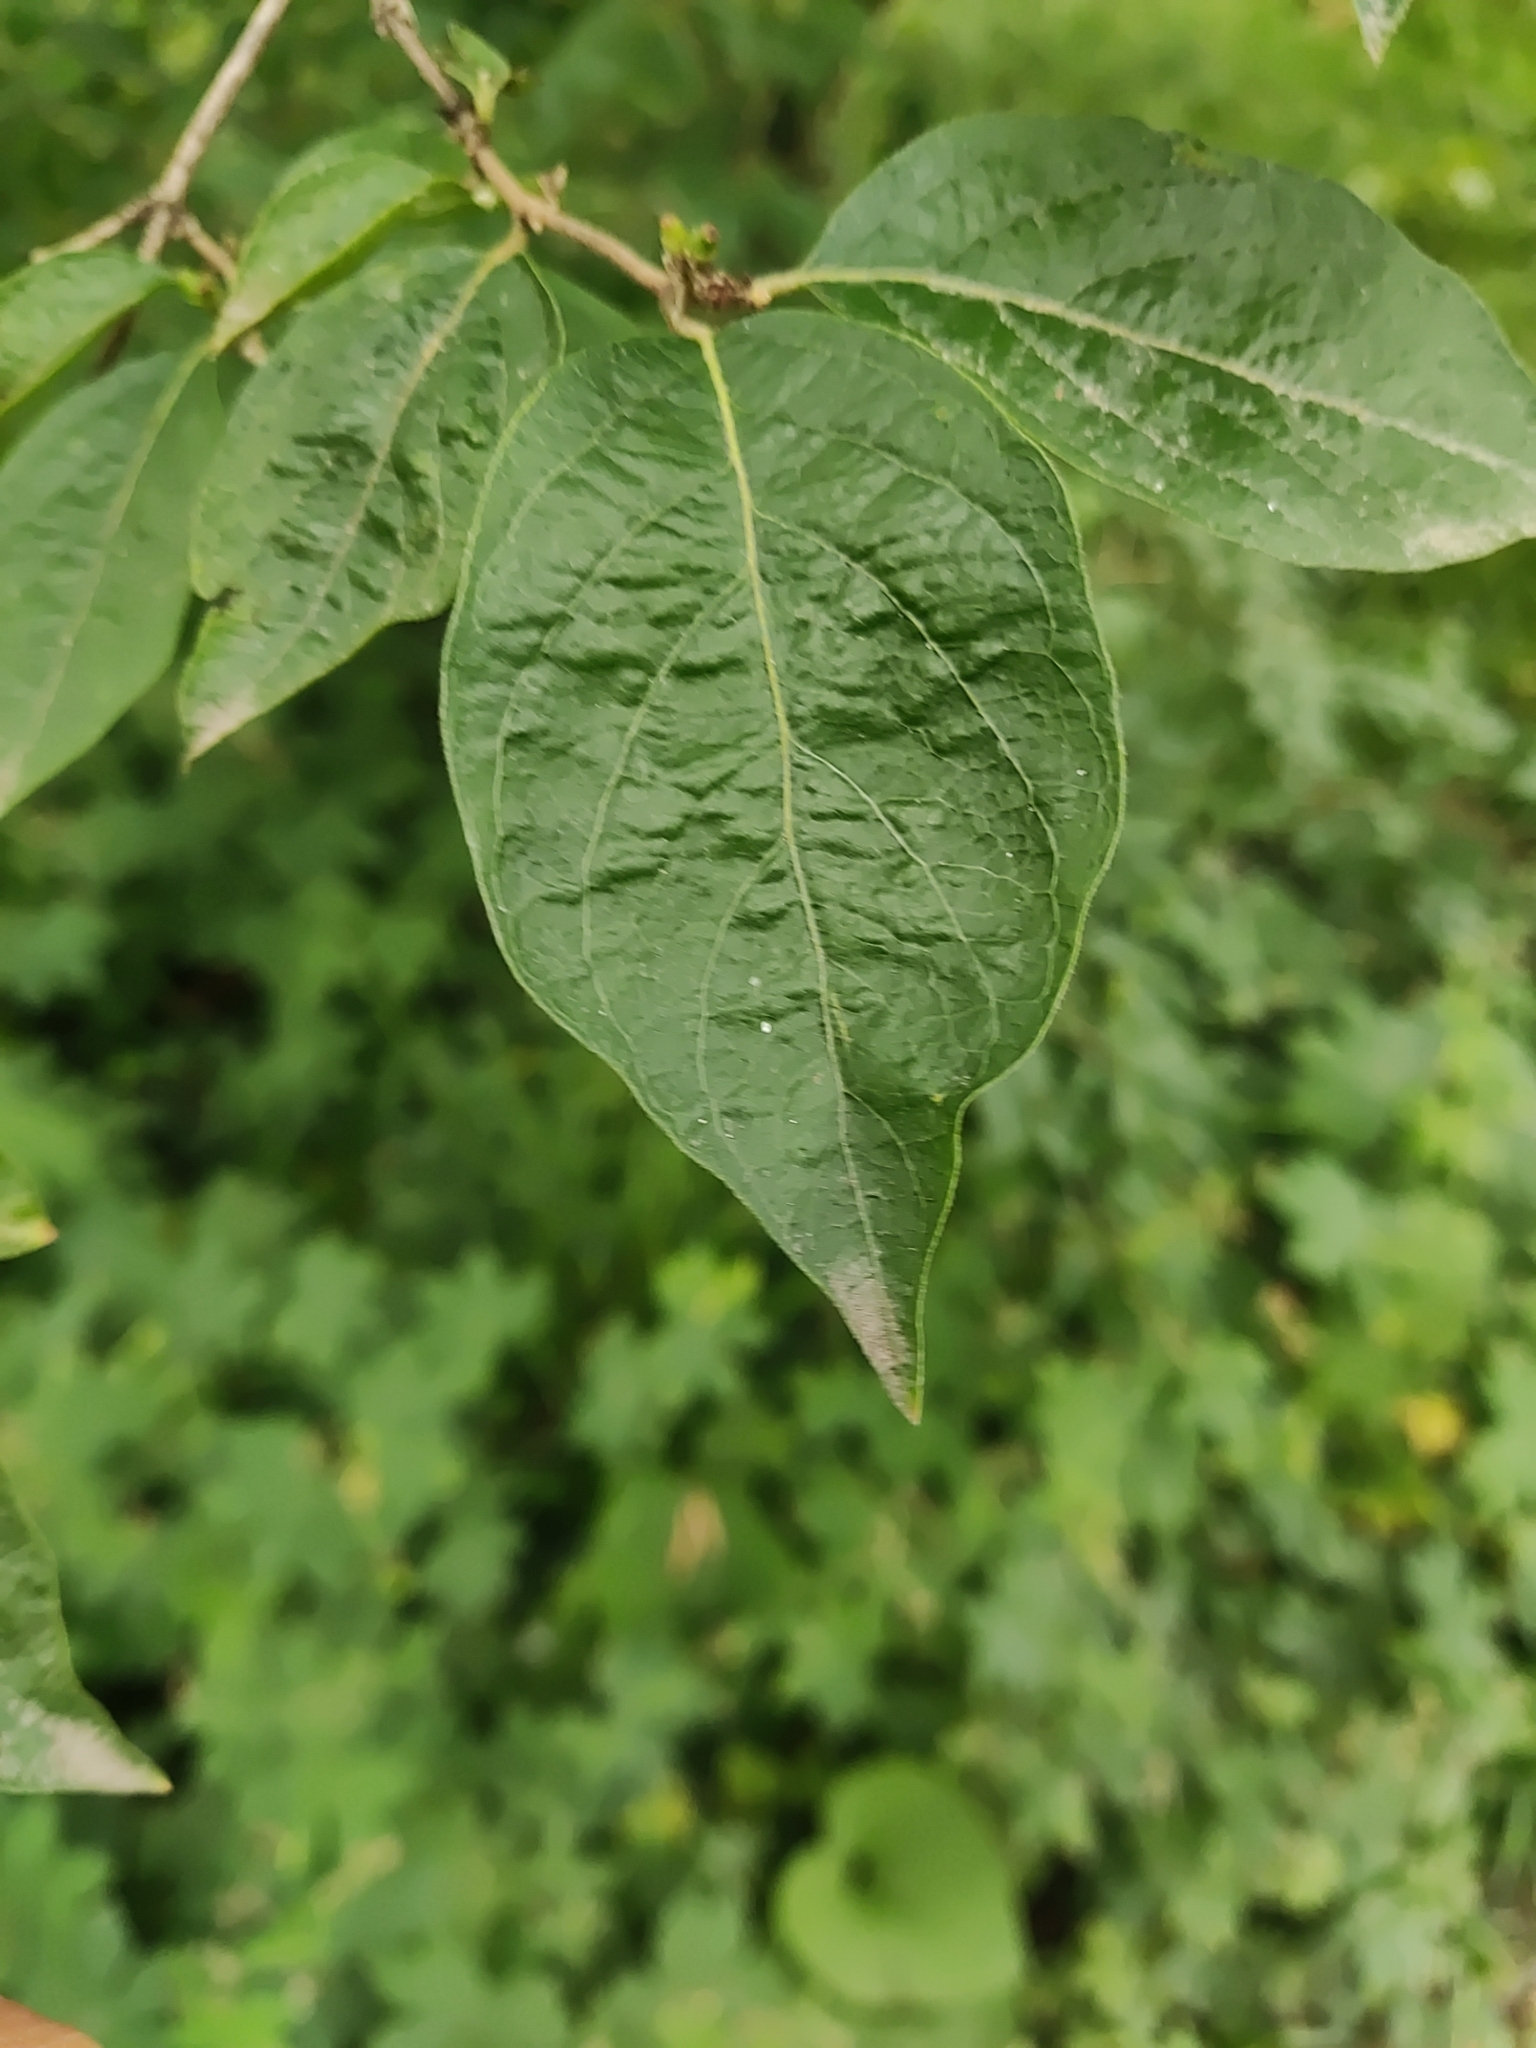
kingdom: Plantae
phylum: Tracheophyta
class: Magnoliopsida
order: Dipsacales
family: Caprifoliaceae
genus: Lonicera
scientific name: Lonicera maackii
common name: Amur honeysuckle
